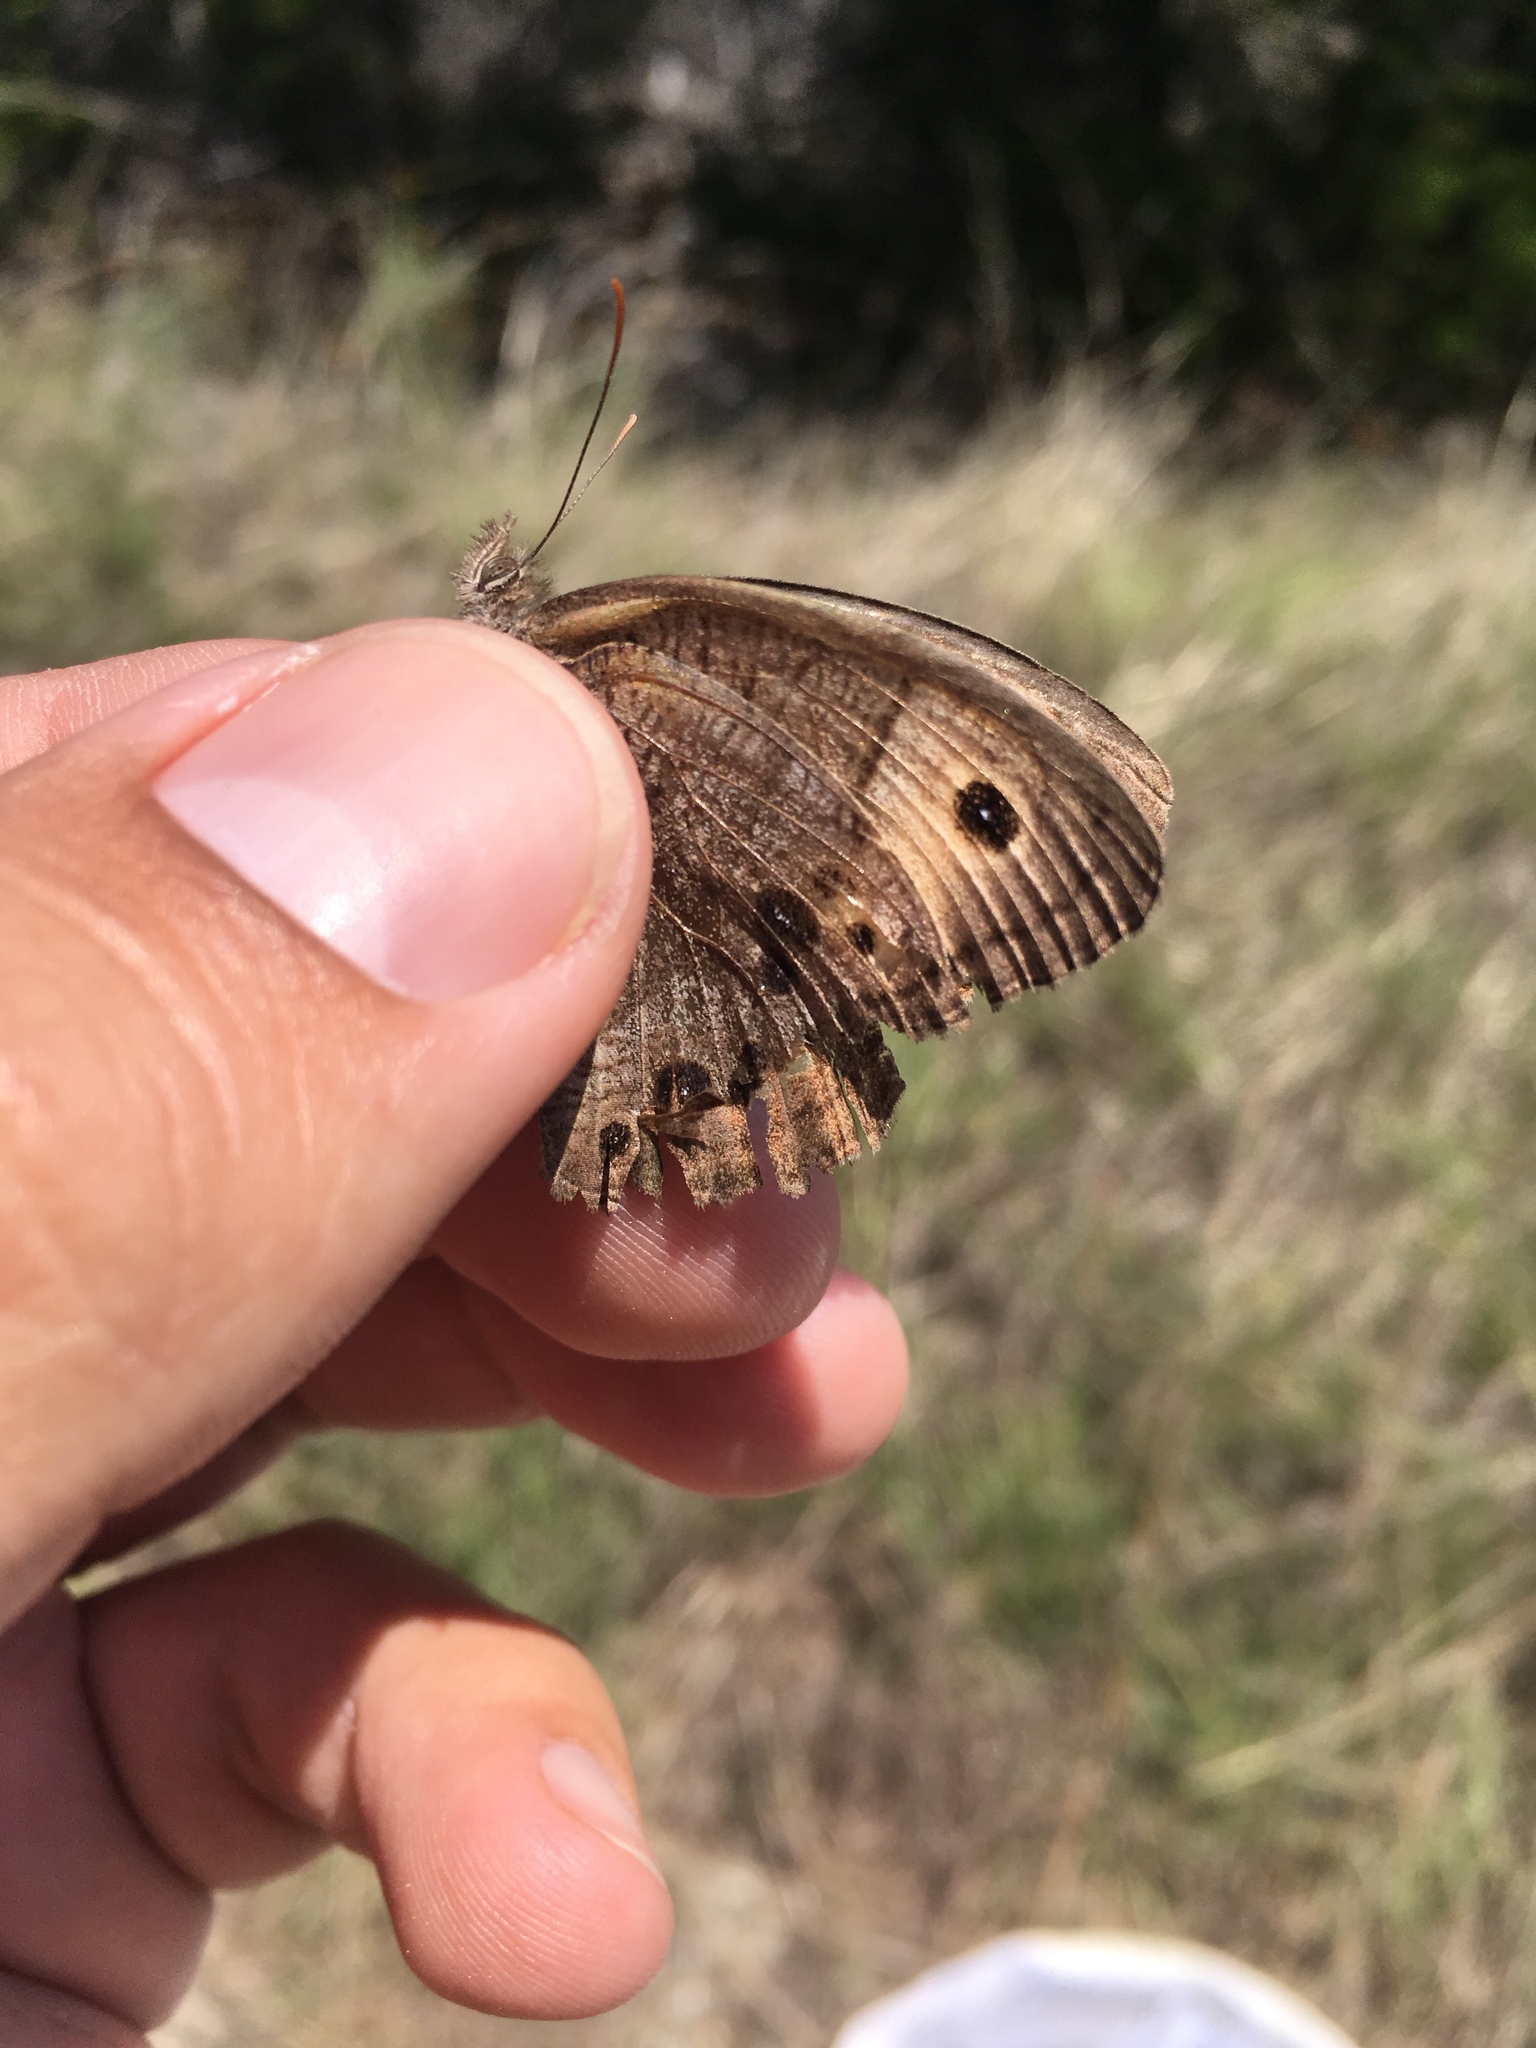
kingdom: Animalia
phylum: Arthropoda
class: Insecta
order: Lepidoptera
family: Nymphalidae
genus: Cercyonis
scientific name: Cercyonis pegala
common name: Common wood-nymph
